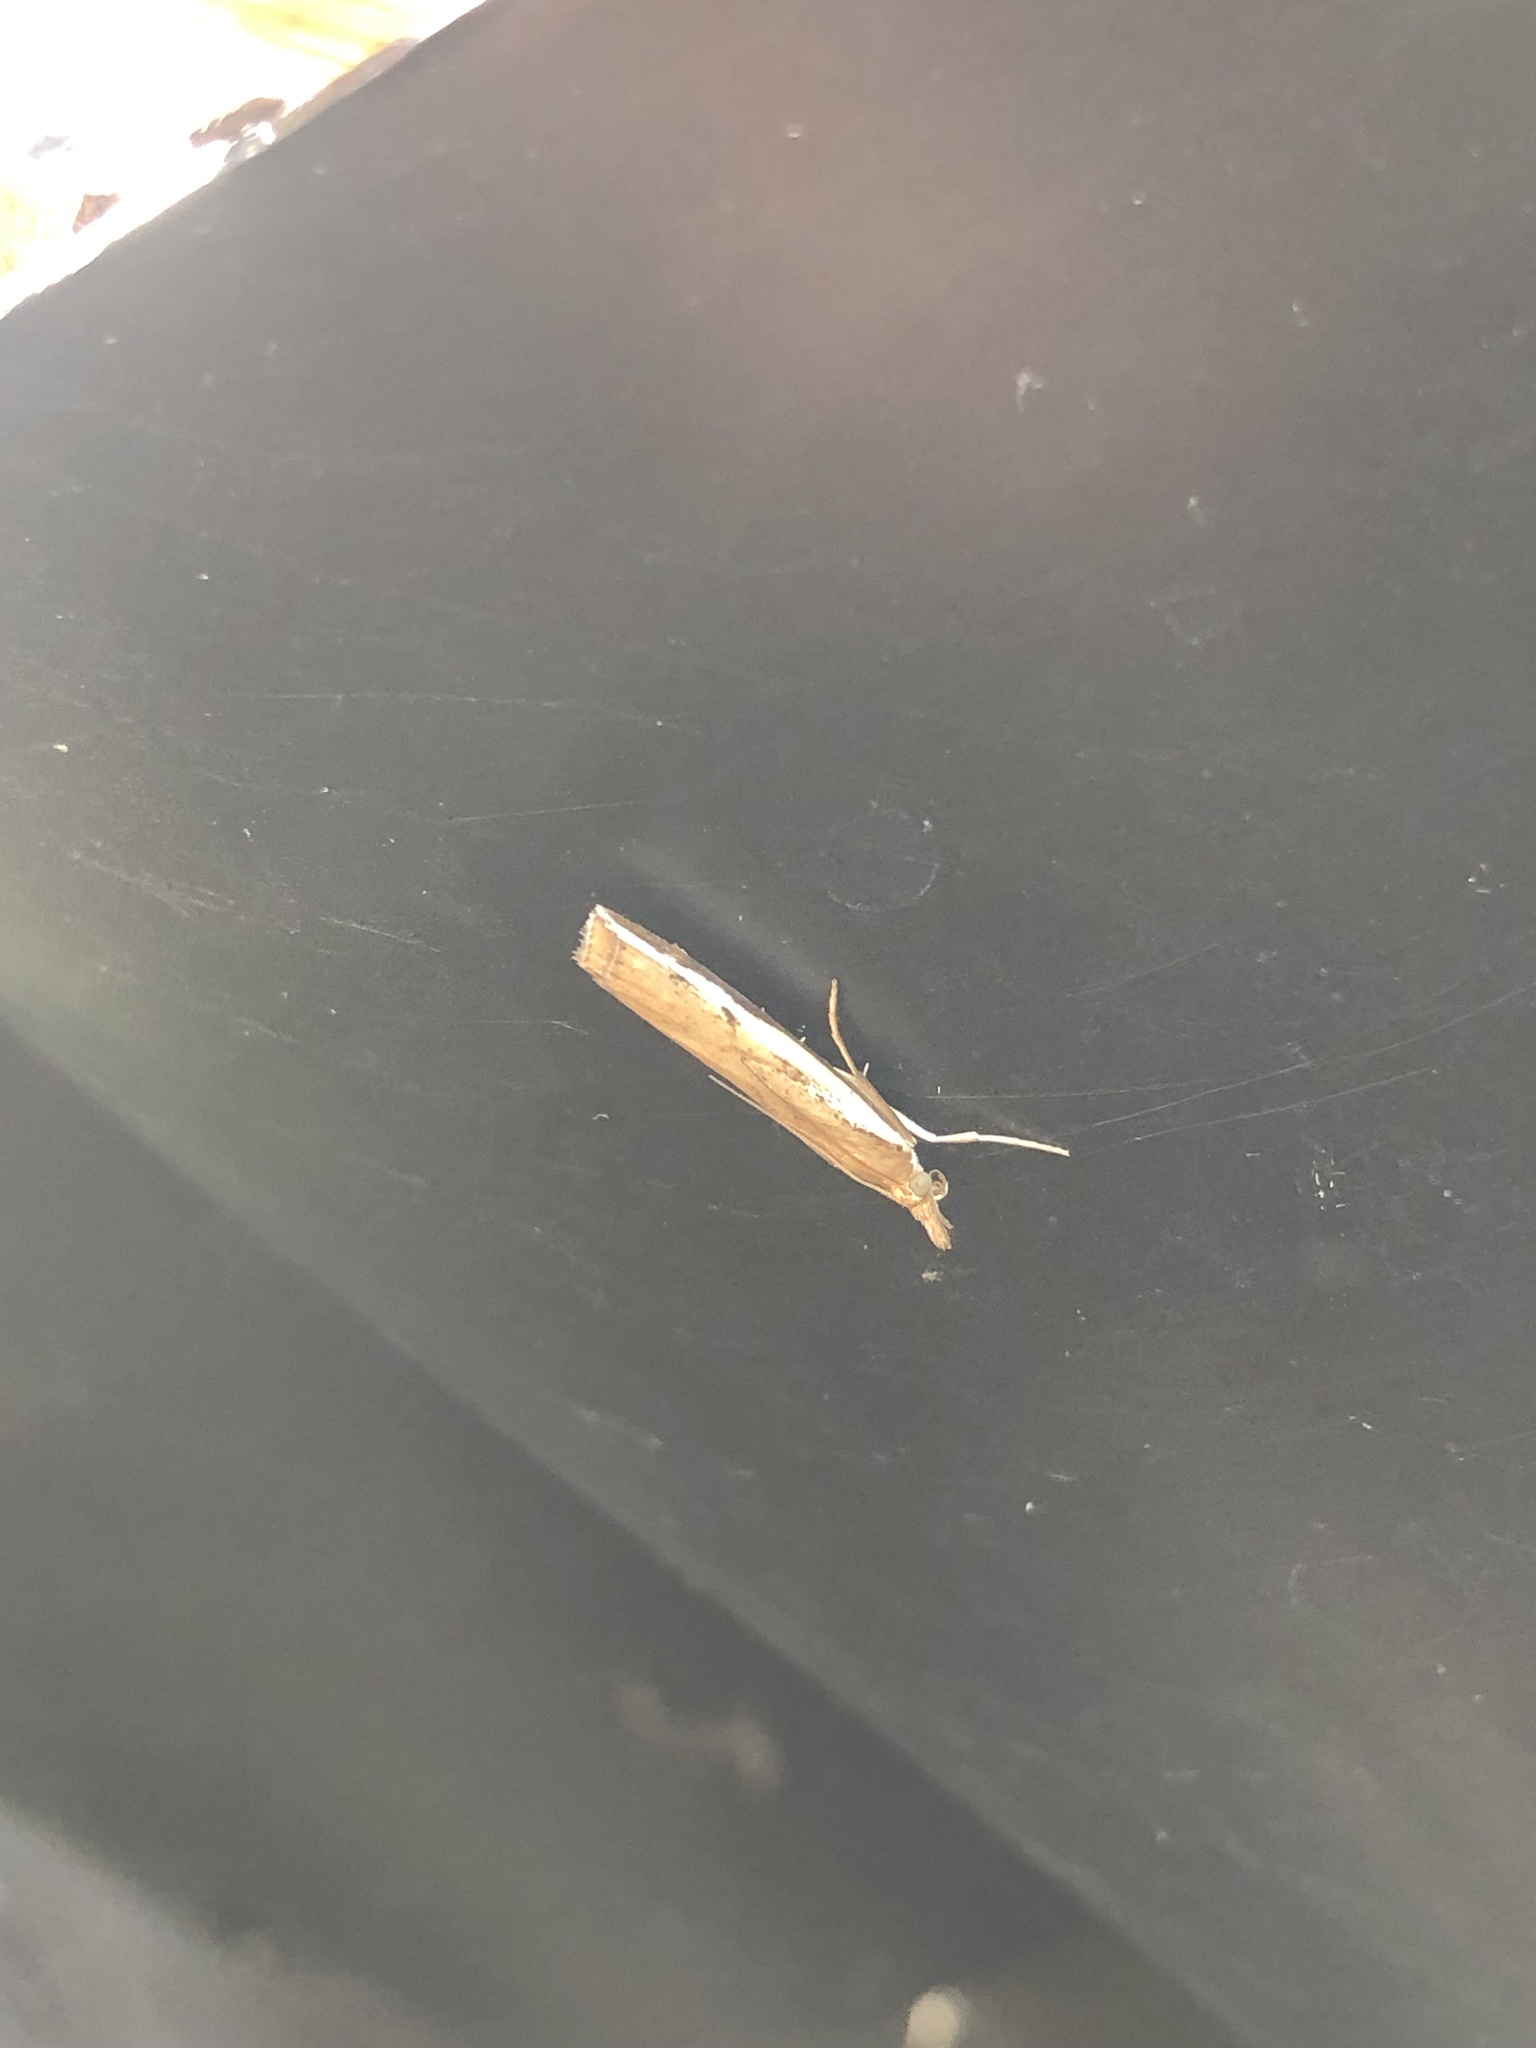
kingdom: Animalia
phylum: Arthropoda
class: Insecta
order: Lepidoptera
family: Crambidae
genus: Orocrambus
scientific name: Orocrambus flexuosellus
